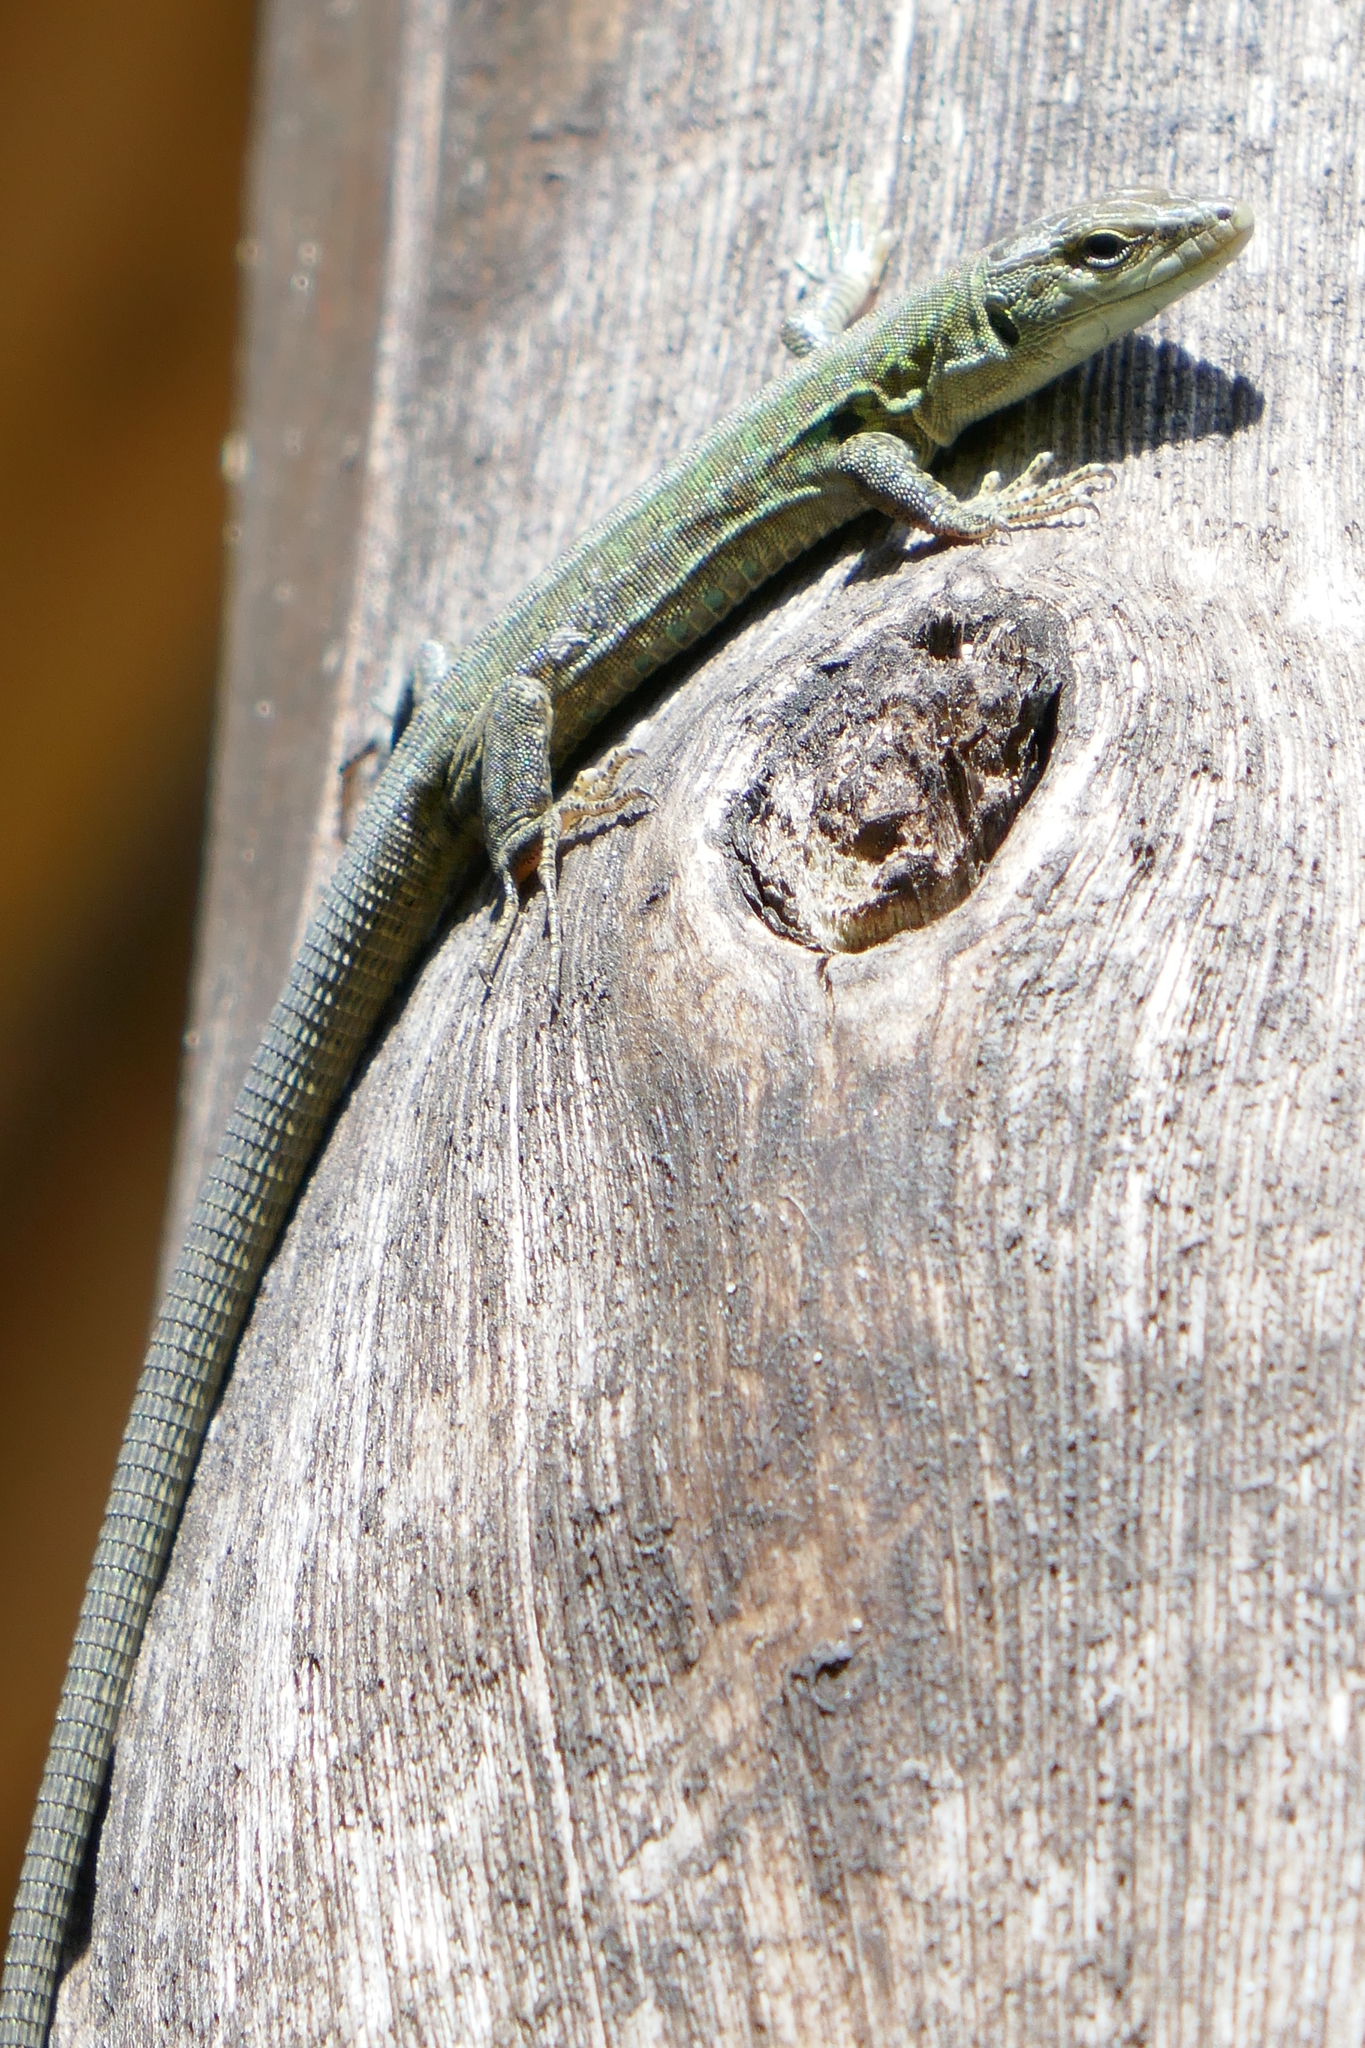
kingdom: Animalia
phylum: Chordata
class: Squamata
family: Lacertidae
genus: Podarcis
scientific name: Podarcis siculus
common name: Italian wall lizard
